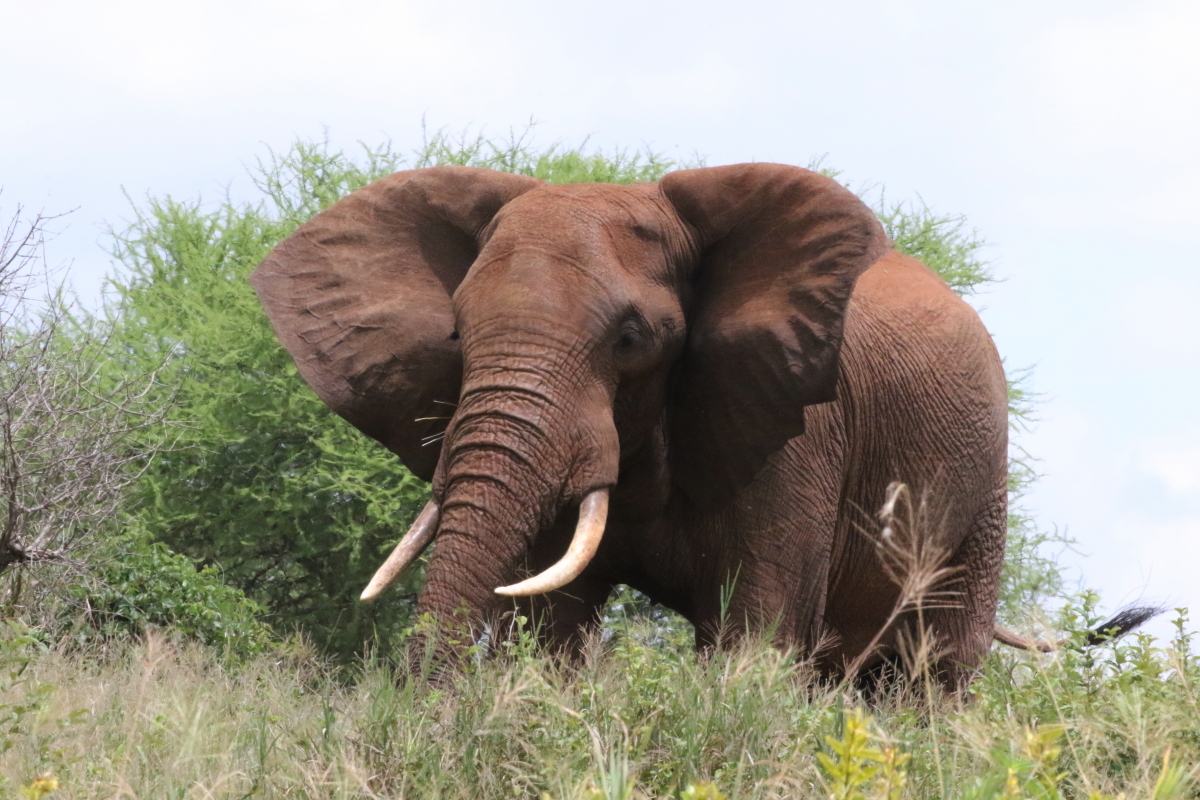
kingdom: Animalia
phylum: Chordata
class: Mammalia
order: Proboscidea
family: Elephantidae
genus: Loxodonta
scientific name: Loxodonta africana
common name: African elephant
